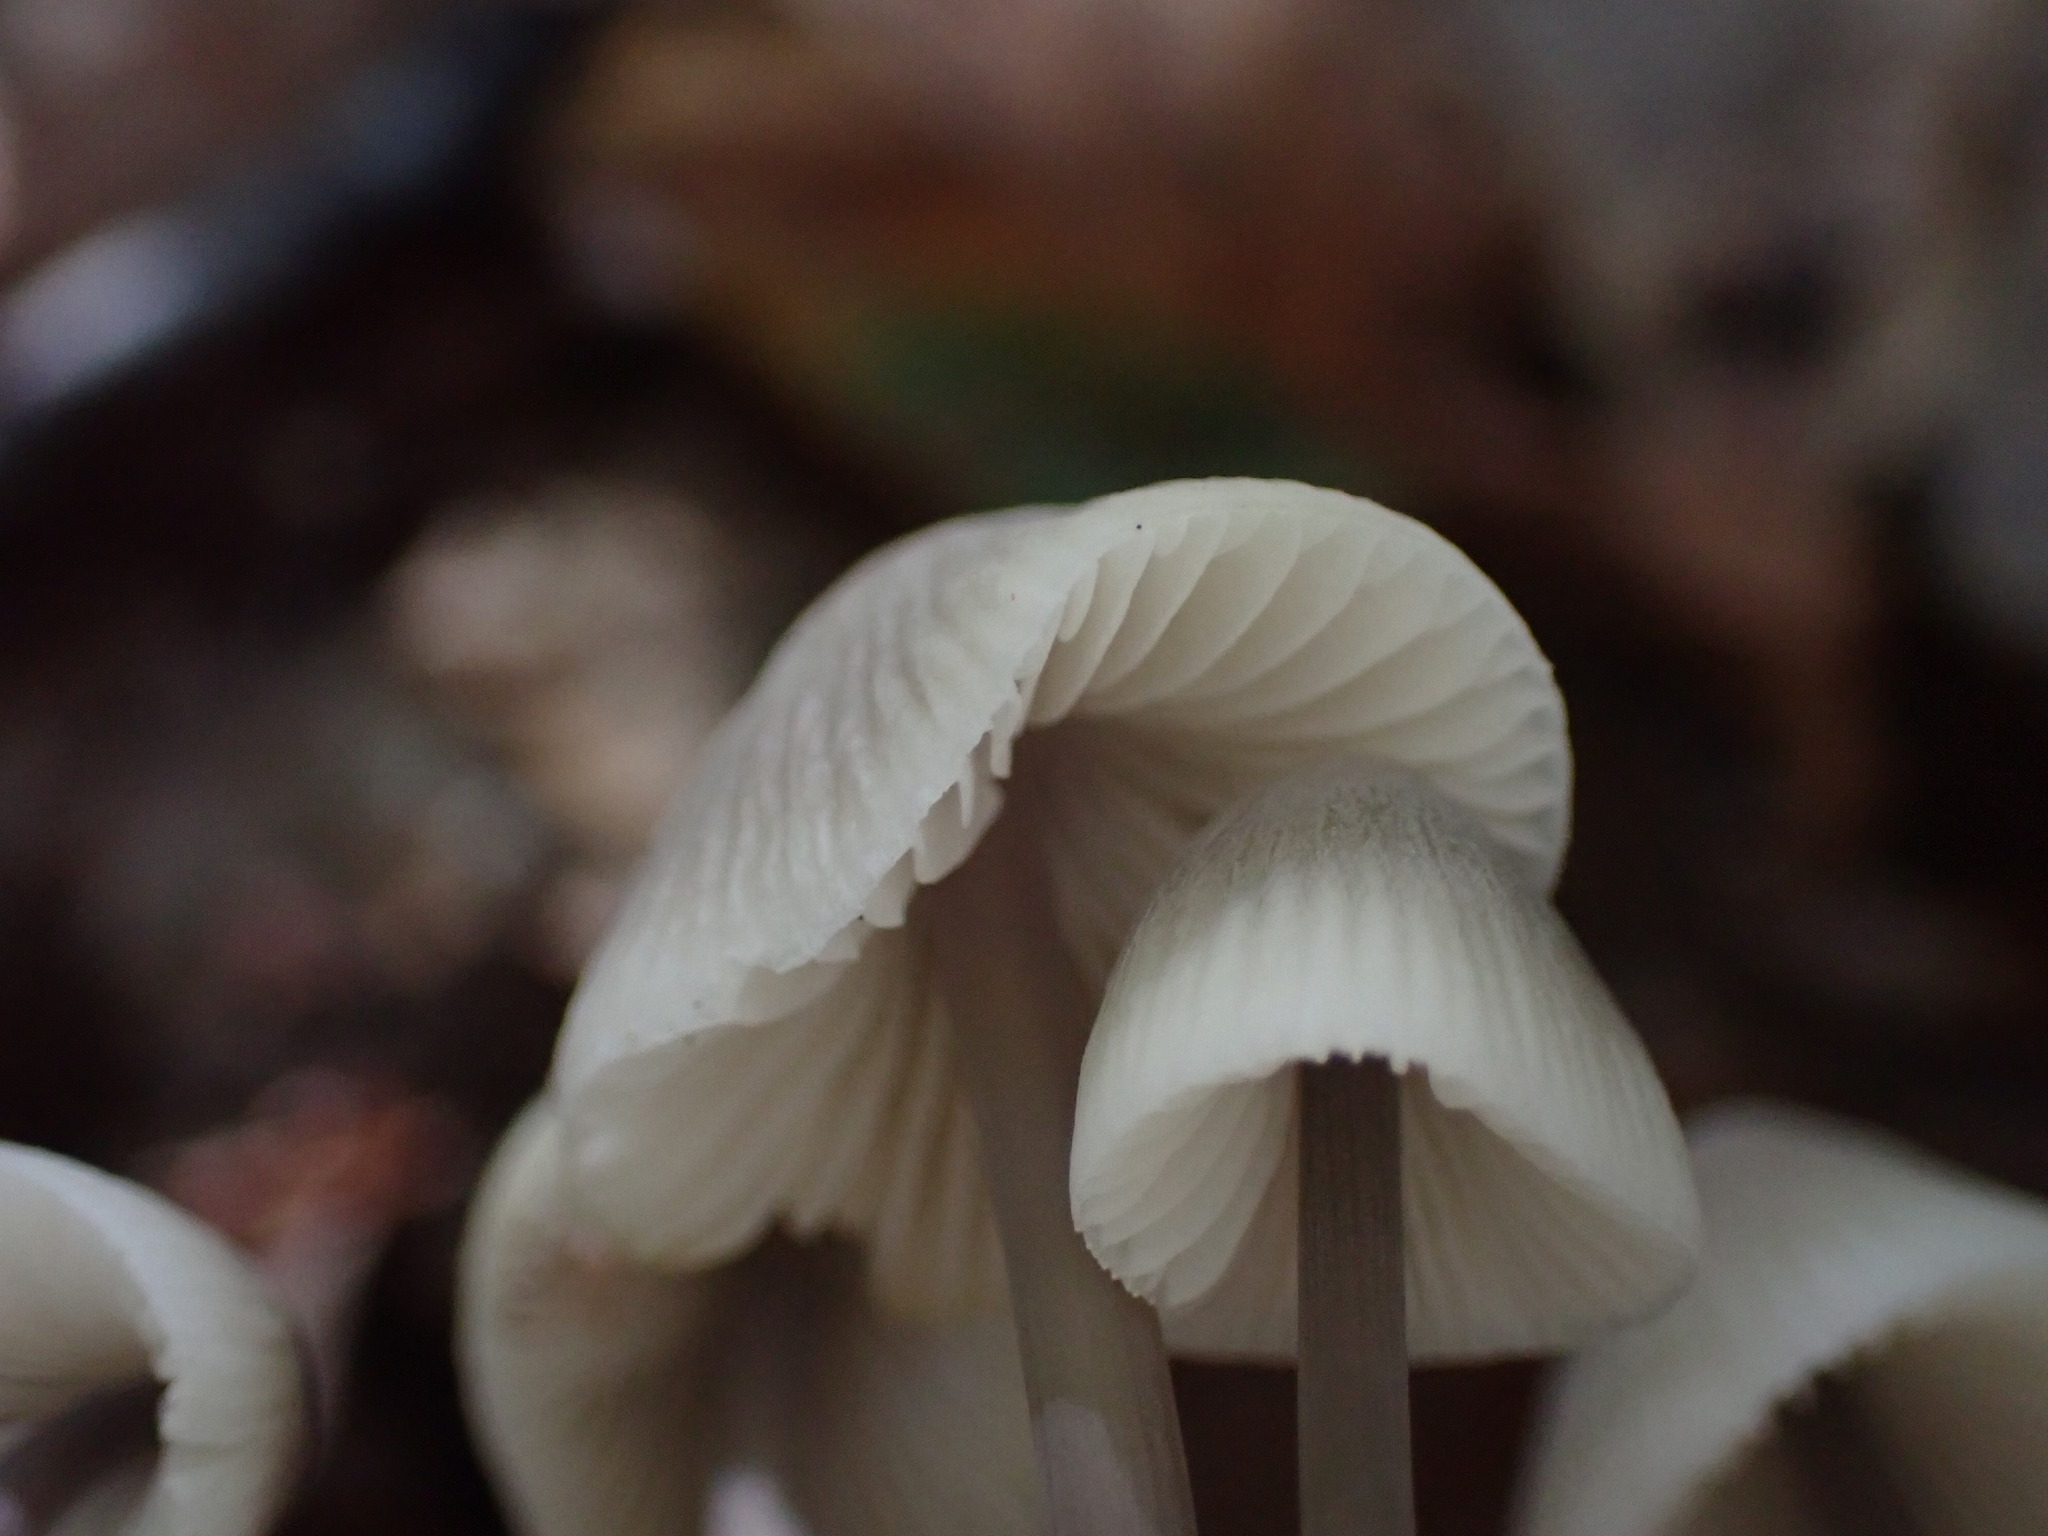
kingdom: Fungi
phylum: Basidiomycota
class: Agaricomycetes
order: Agaricales
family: Mycenaceae
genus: Mycena
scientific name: Mycena filopes
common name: Iodine bonnet
